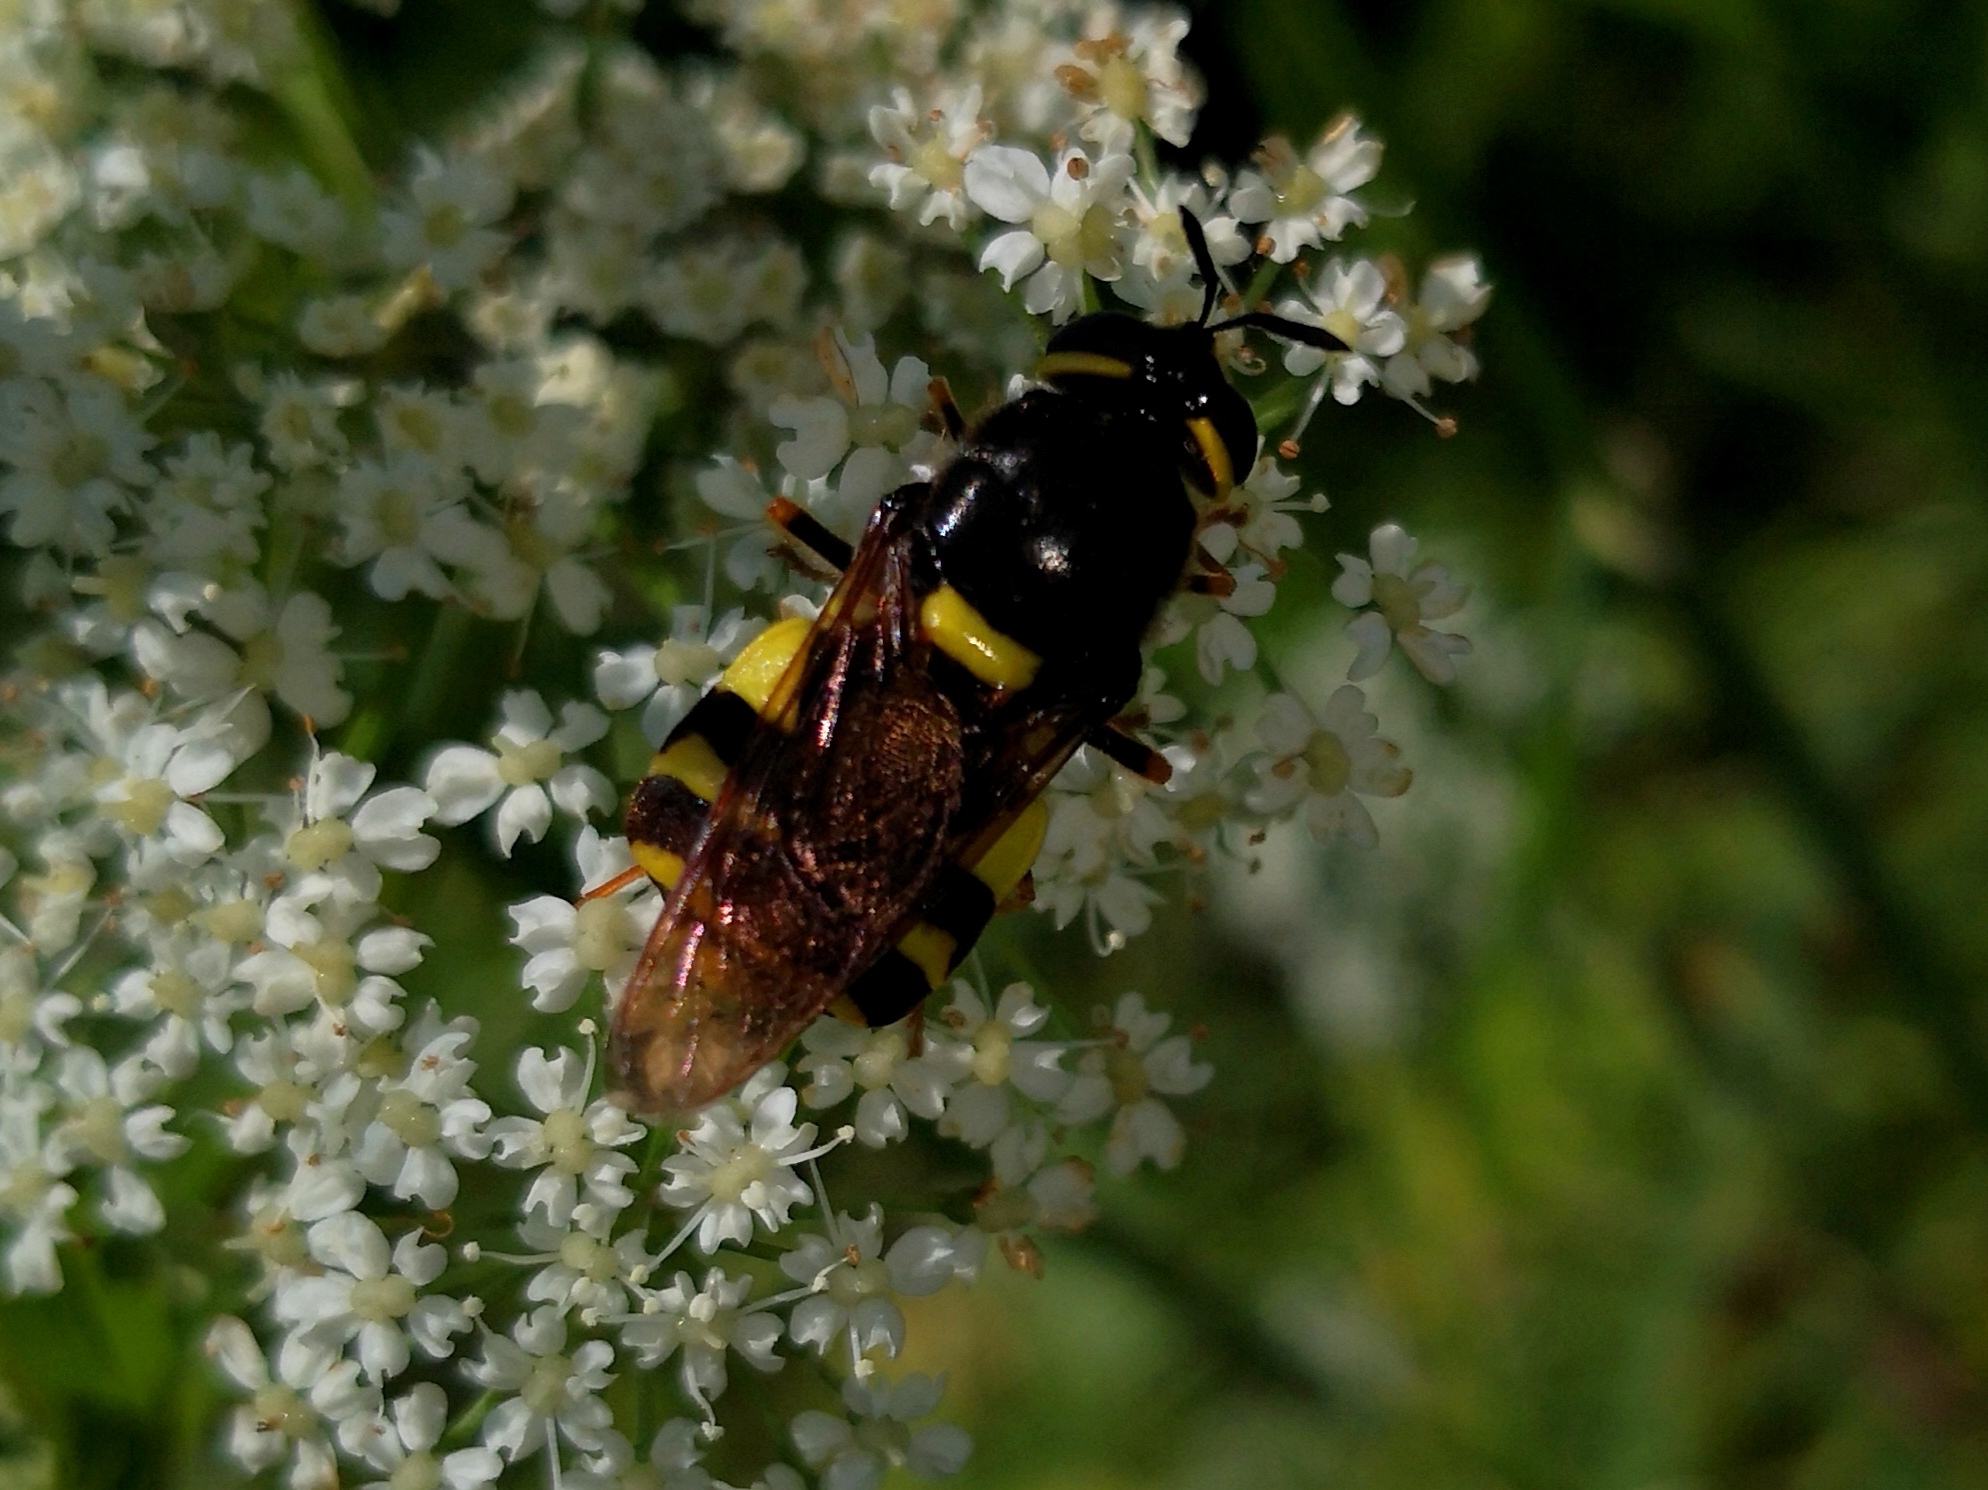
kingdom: Animalia
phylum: Arthropoda
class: Insecta
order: Diptera
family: Stratiomyidae
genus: Stratiomys
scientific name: Stratiomys potamida
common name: Banded general
